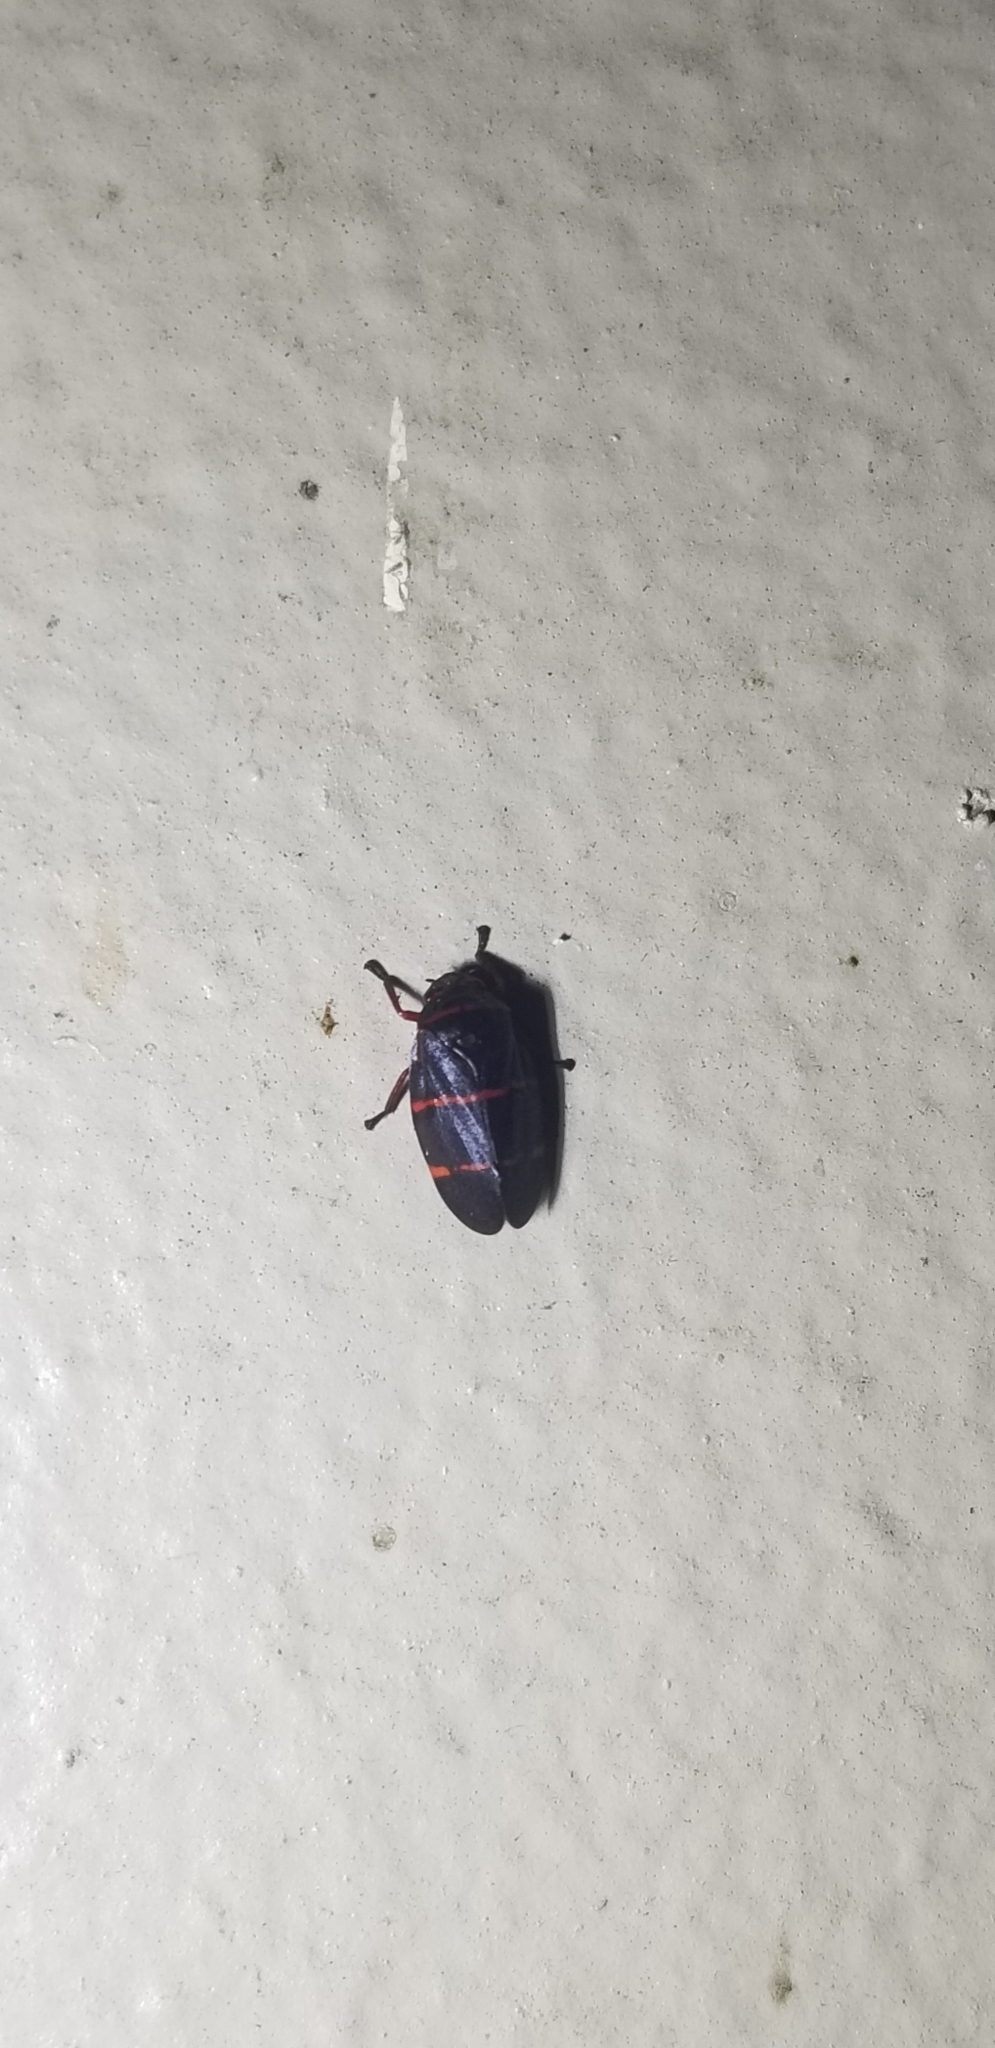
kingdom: Animalia
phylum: Arthropoda
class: Insecta
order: Hemiptera
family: Cercopidae
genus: Prosapia
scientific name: Prosapia bicincta
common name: Twolined spittlebug
